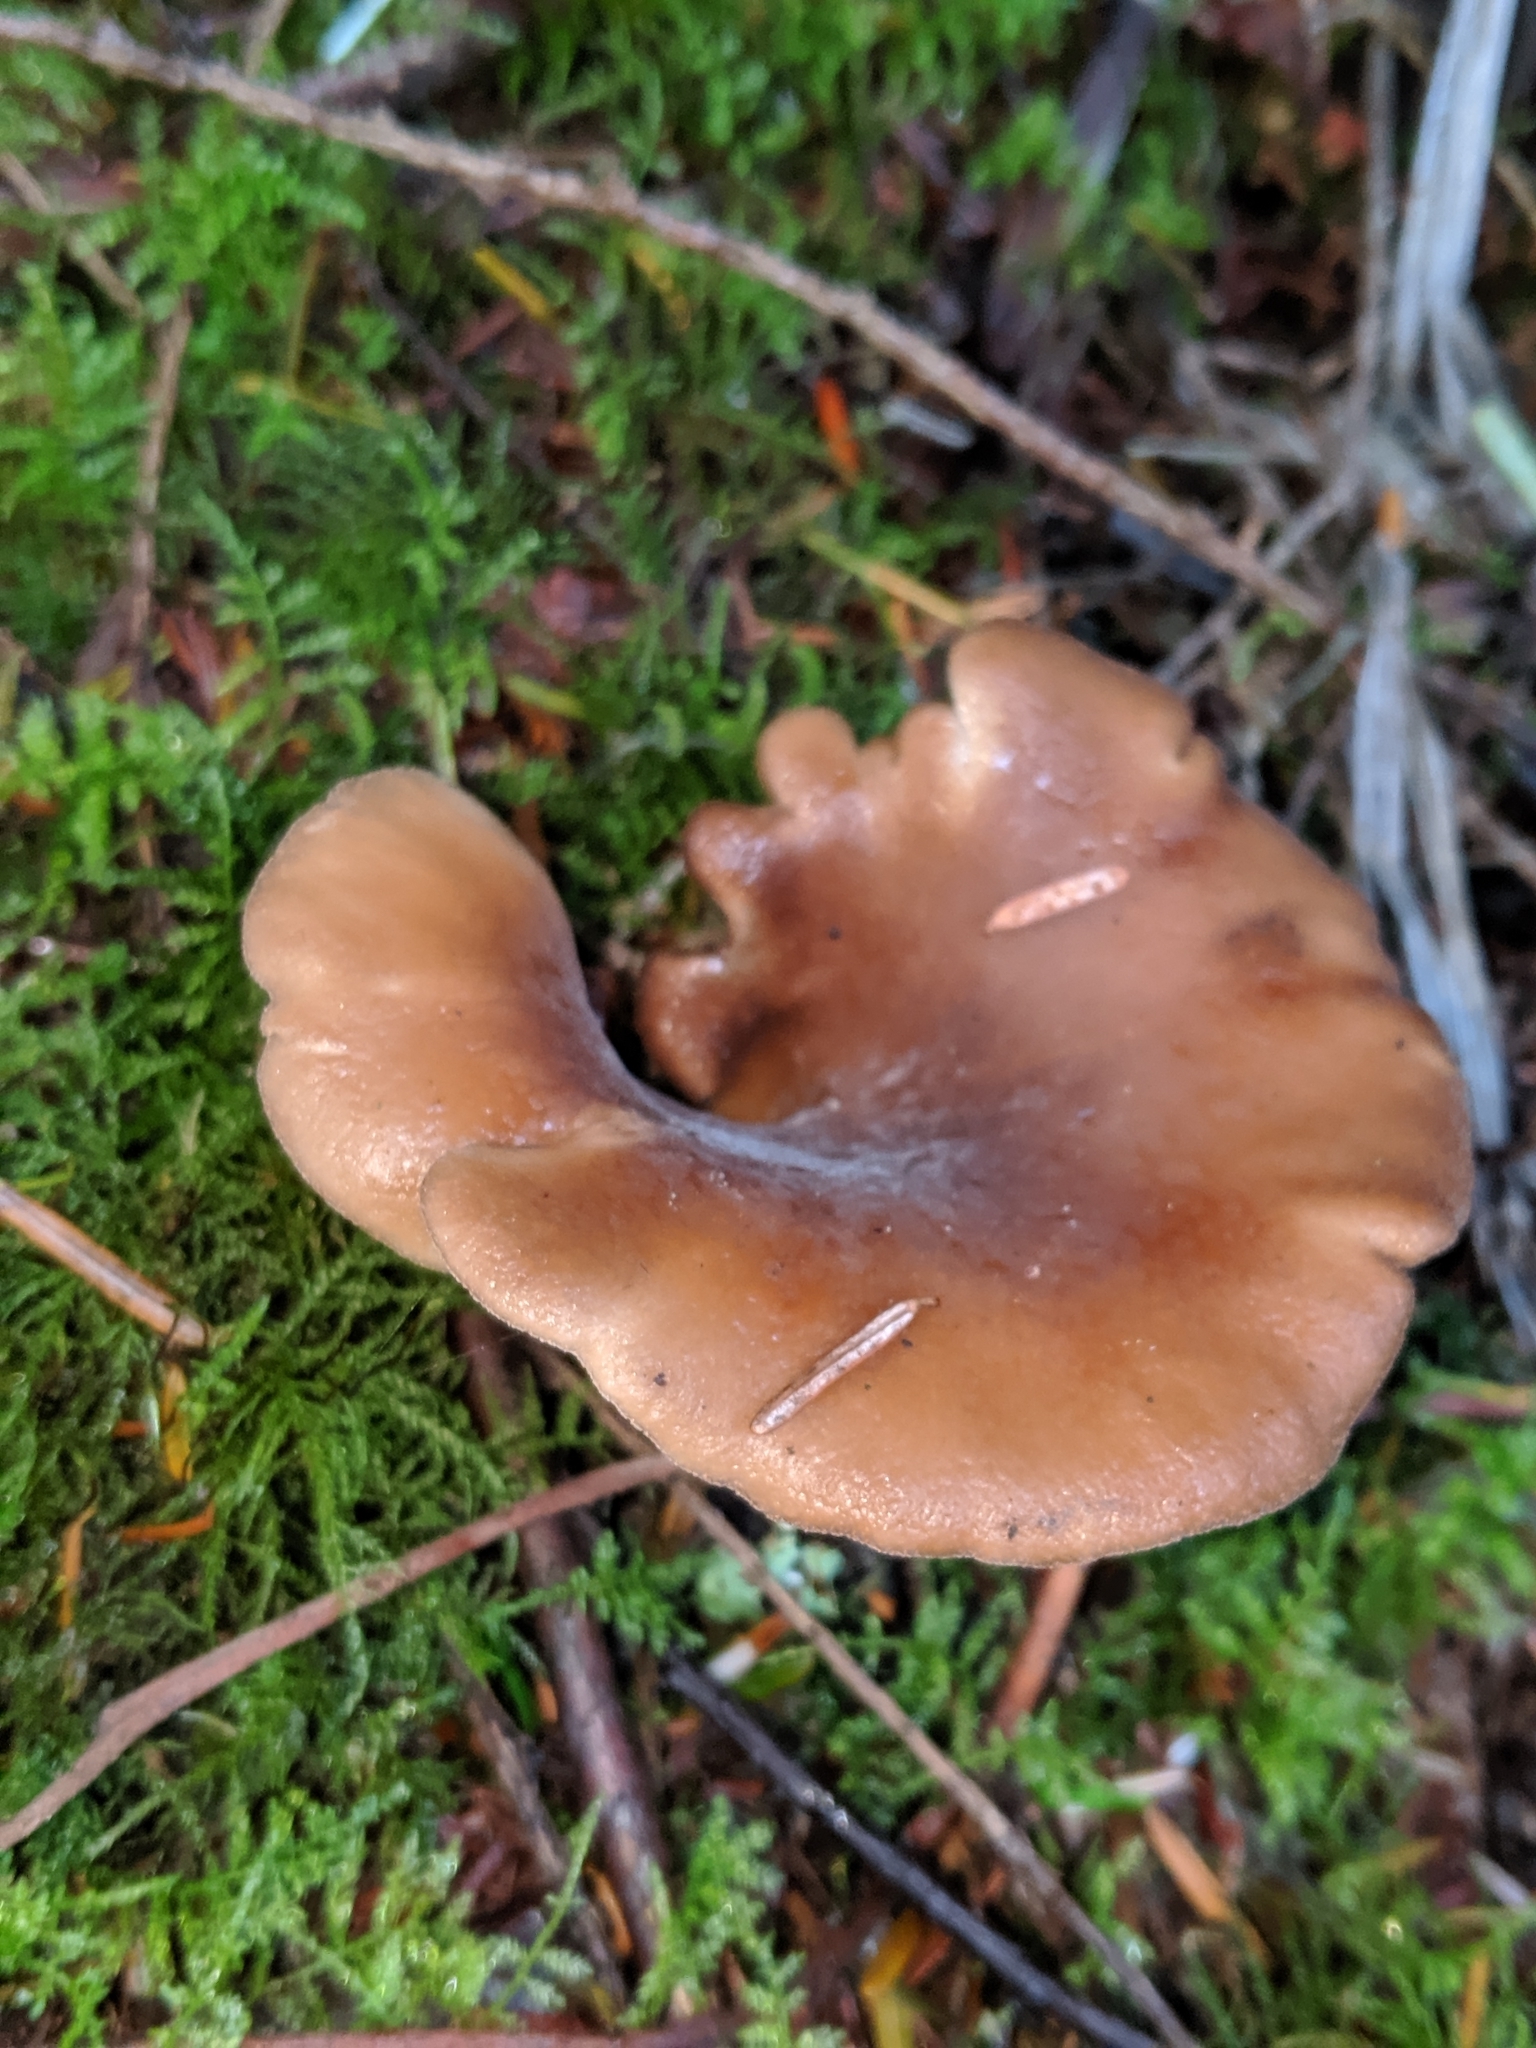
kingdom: Fungi
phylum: Basidiomycota
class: Agaricomycetes
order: Agaricales
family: Pleurotaceae
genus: Hohenbuehelia
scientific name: Hohenbuehelia petaloides
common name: Shoehorn oyster
